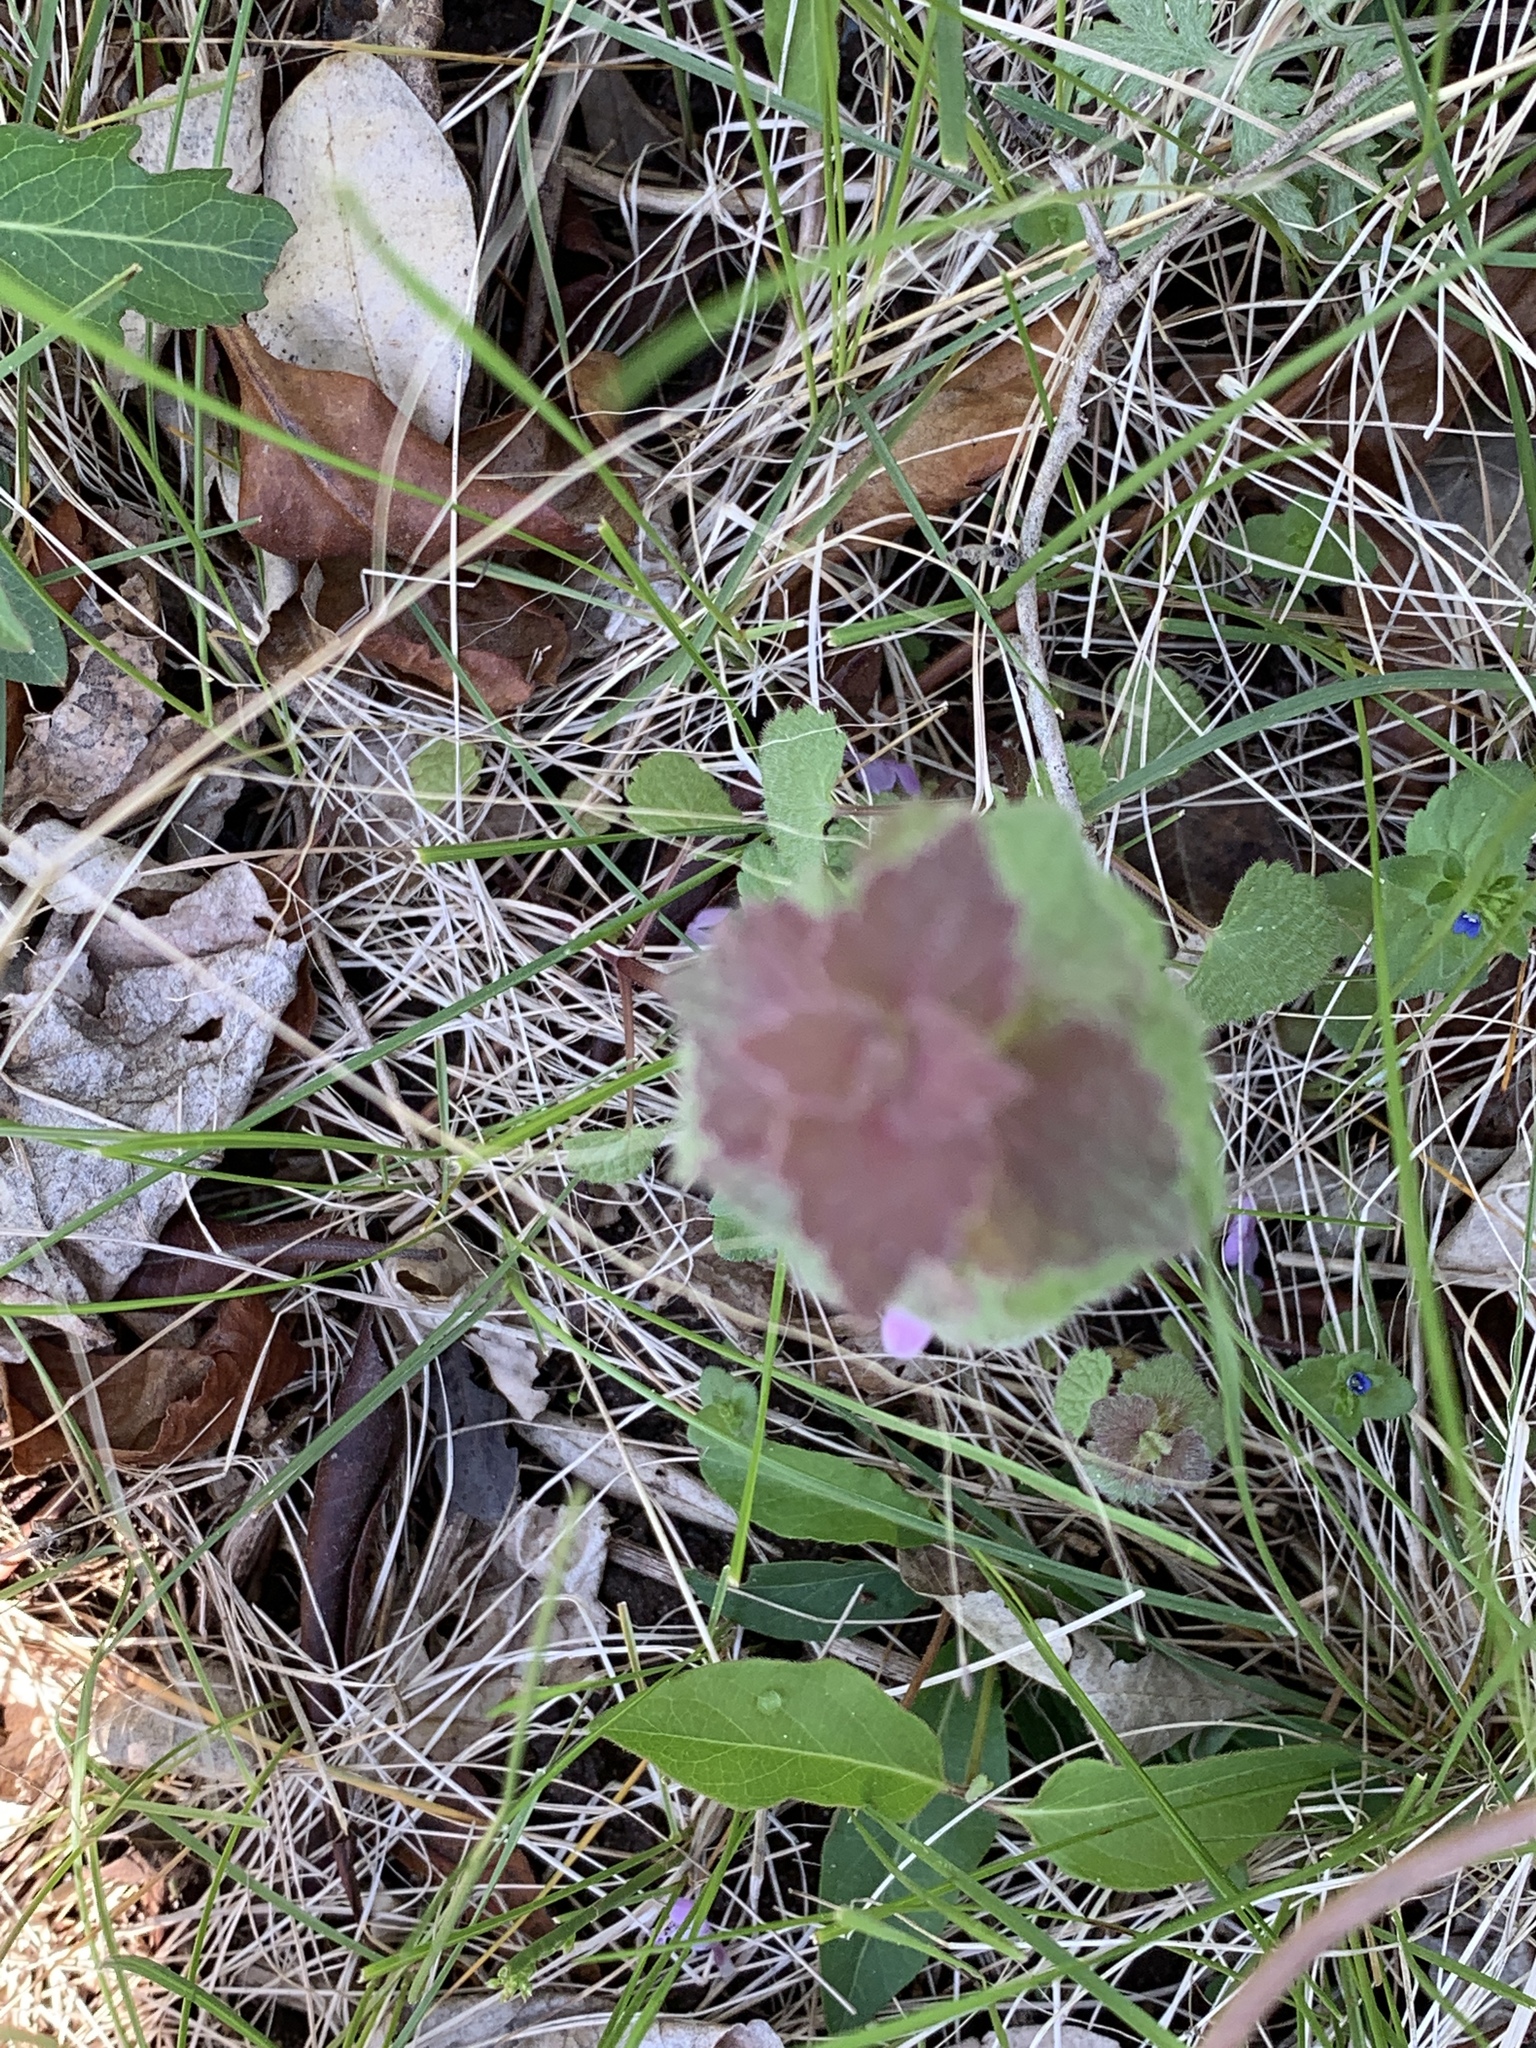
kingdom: Plantae
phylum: Tracheophyta
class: Magnoliopsida
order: Lamiales
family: Lamiaceae
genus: Lamium
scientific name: Lamium purpureum
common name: Red dead-nettle
